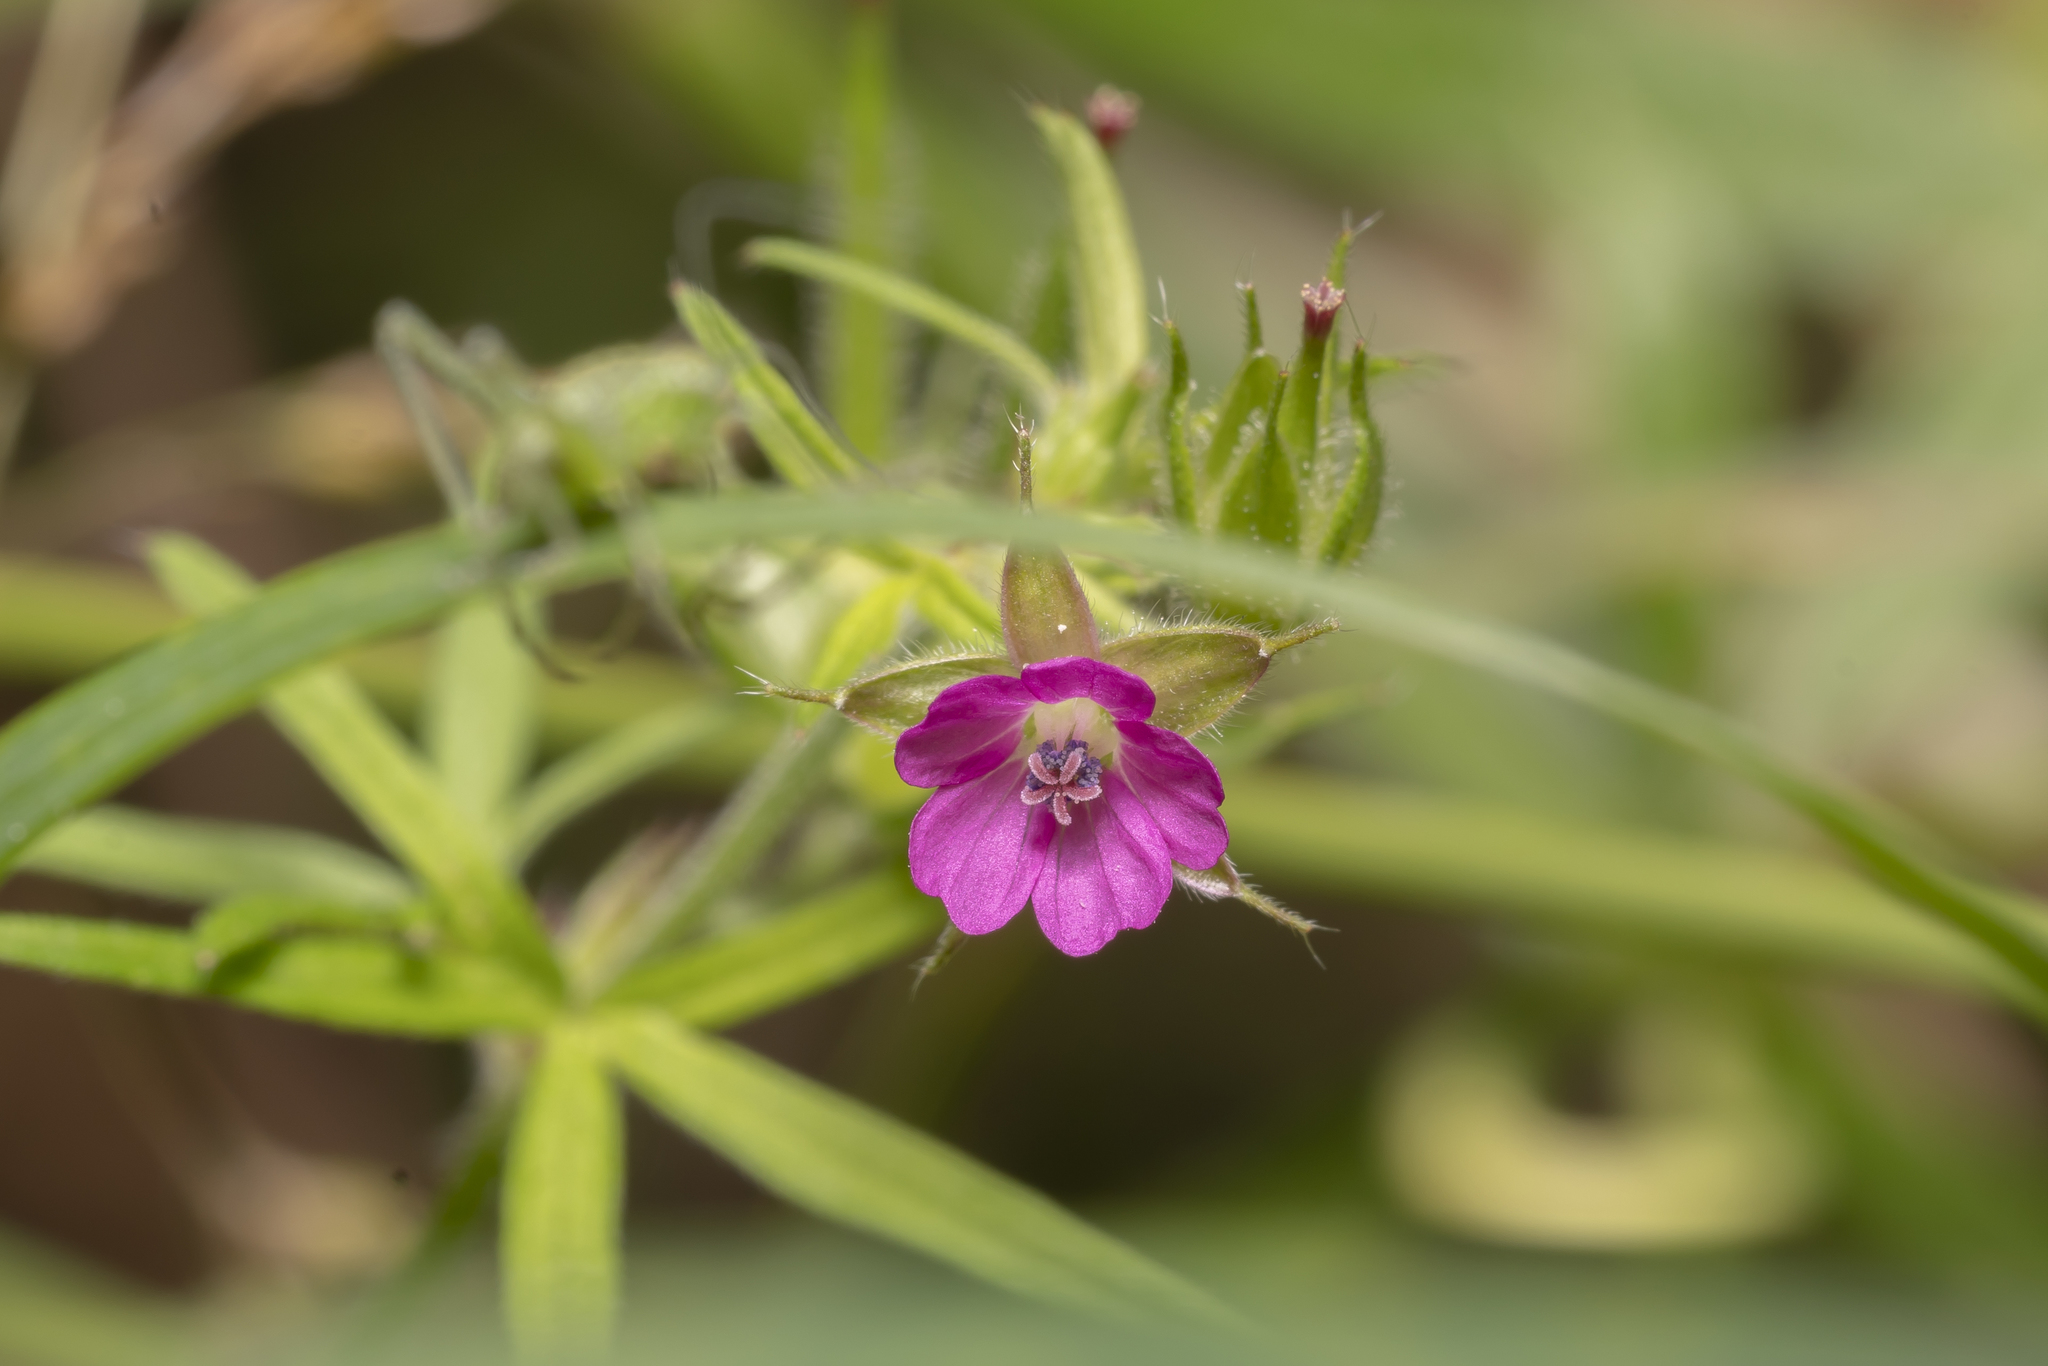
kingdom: Plantae
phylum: Tracheophyta
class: Magnoliopsida
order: Geraniales
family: Geraniaceae
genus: Geranium
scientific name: Geranium dissectum
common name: Cut-leaved crane's-bill
